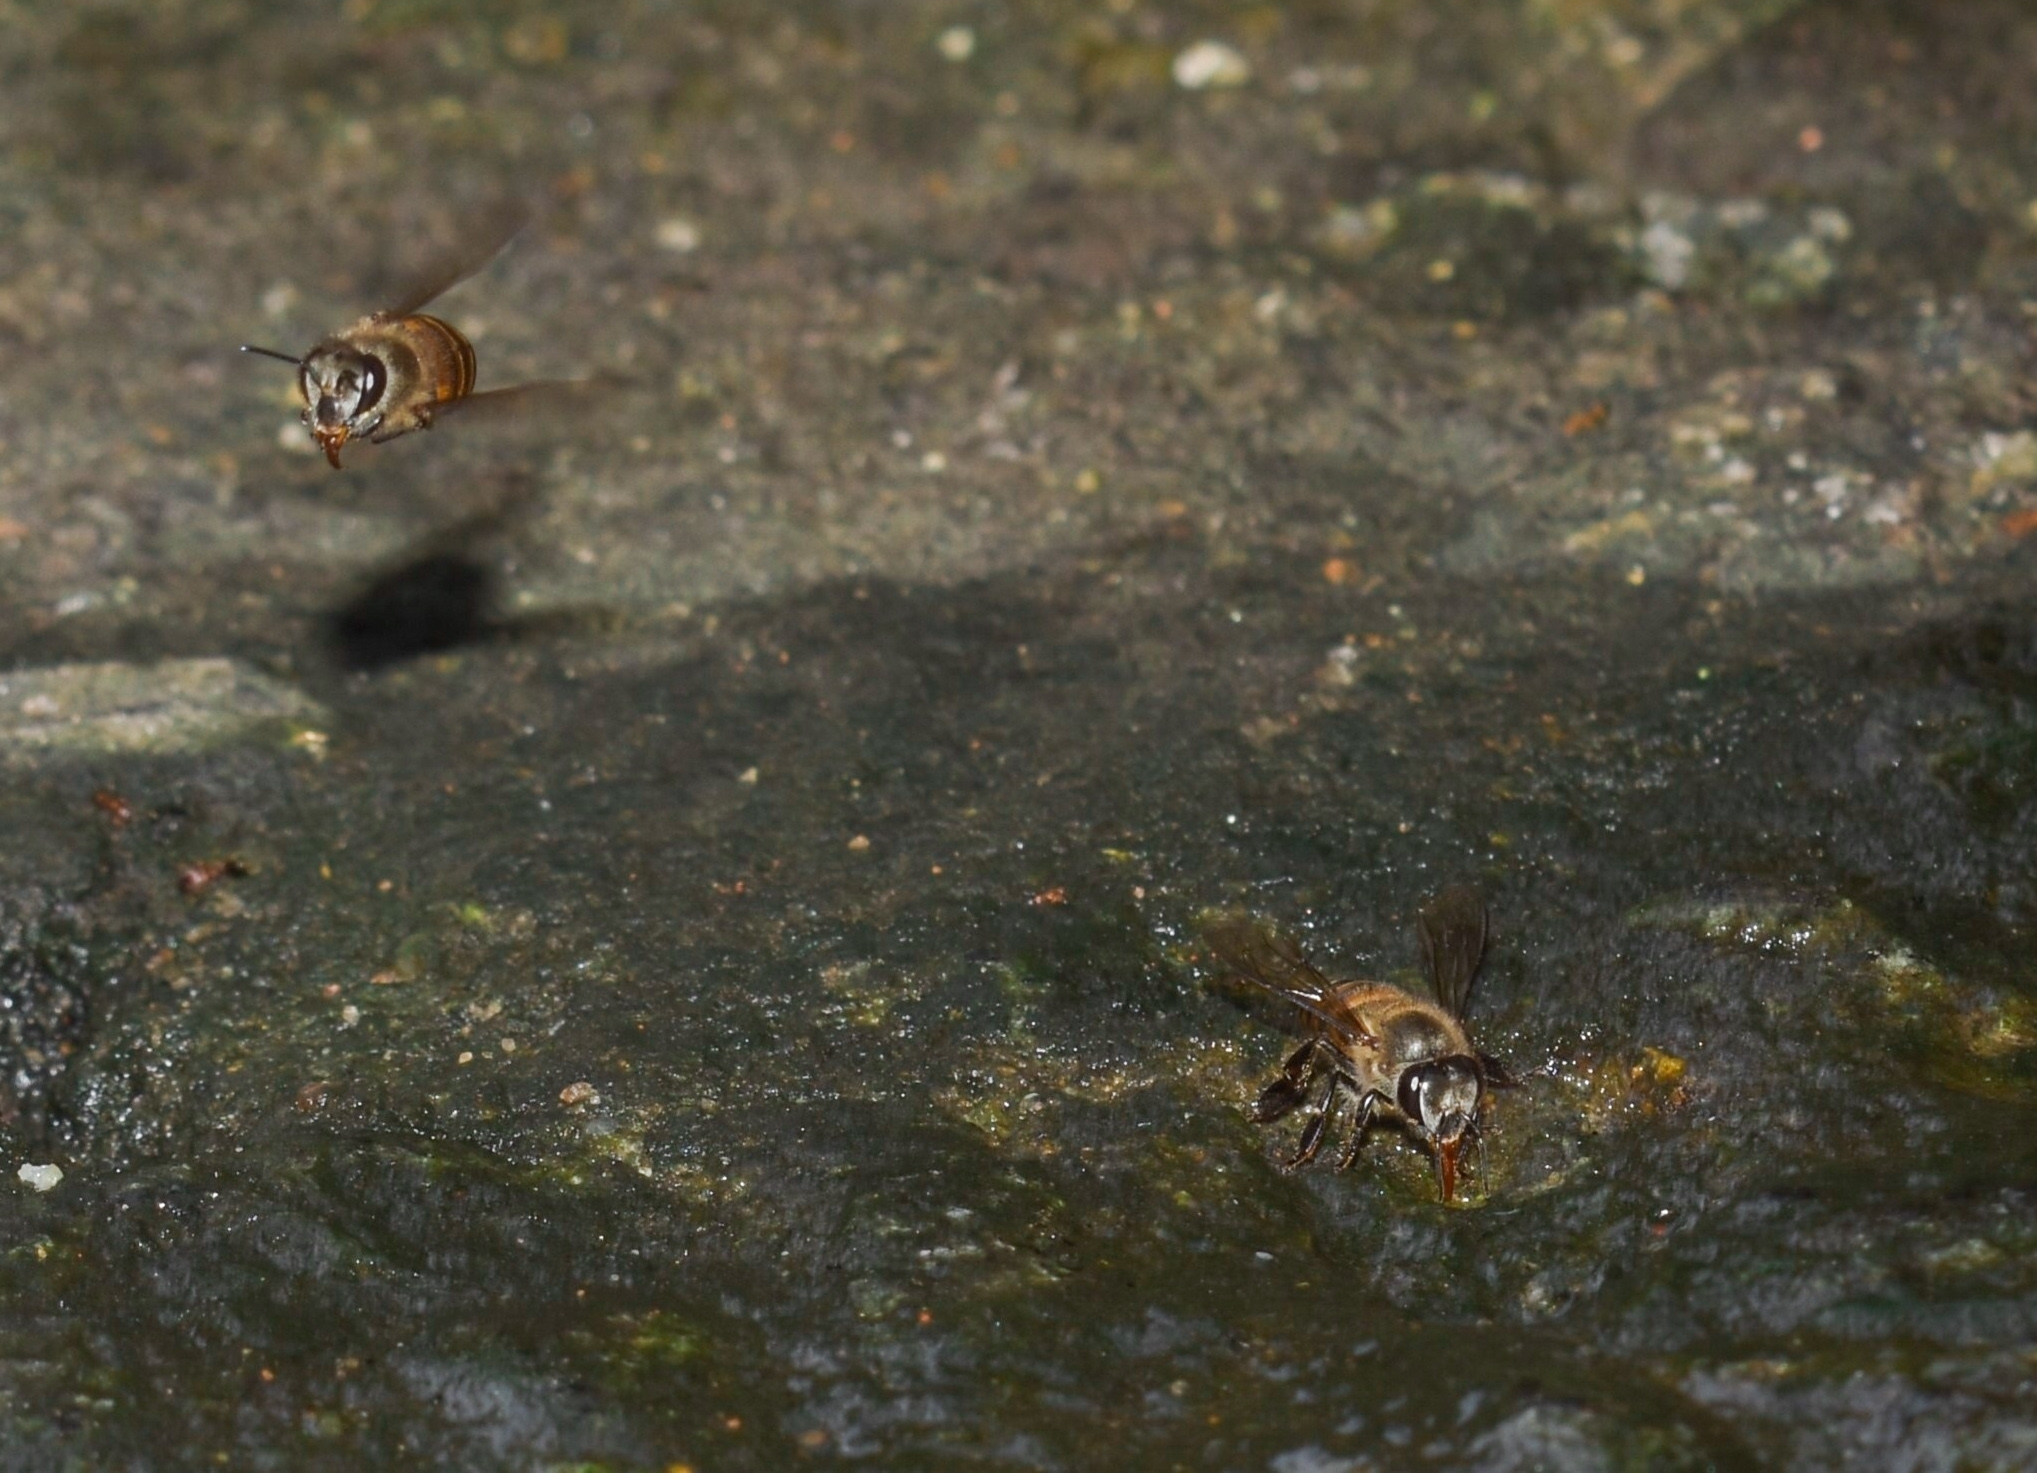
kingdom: Animalia
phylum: Arthropoda
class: Insecta
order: Hymenoptera
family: Apidae
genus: Apis
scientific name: Apis cerana
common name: Honey bee
